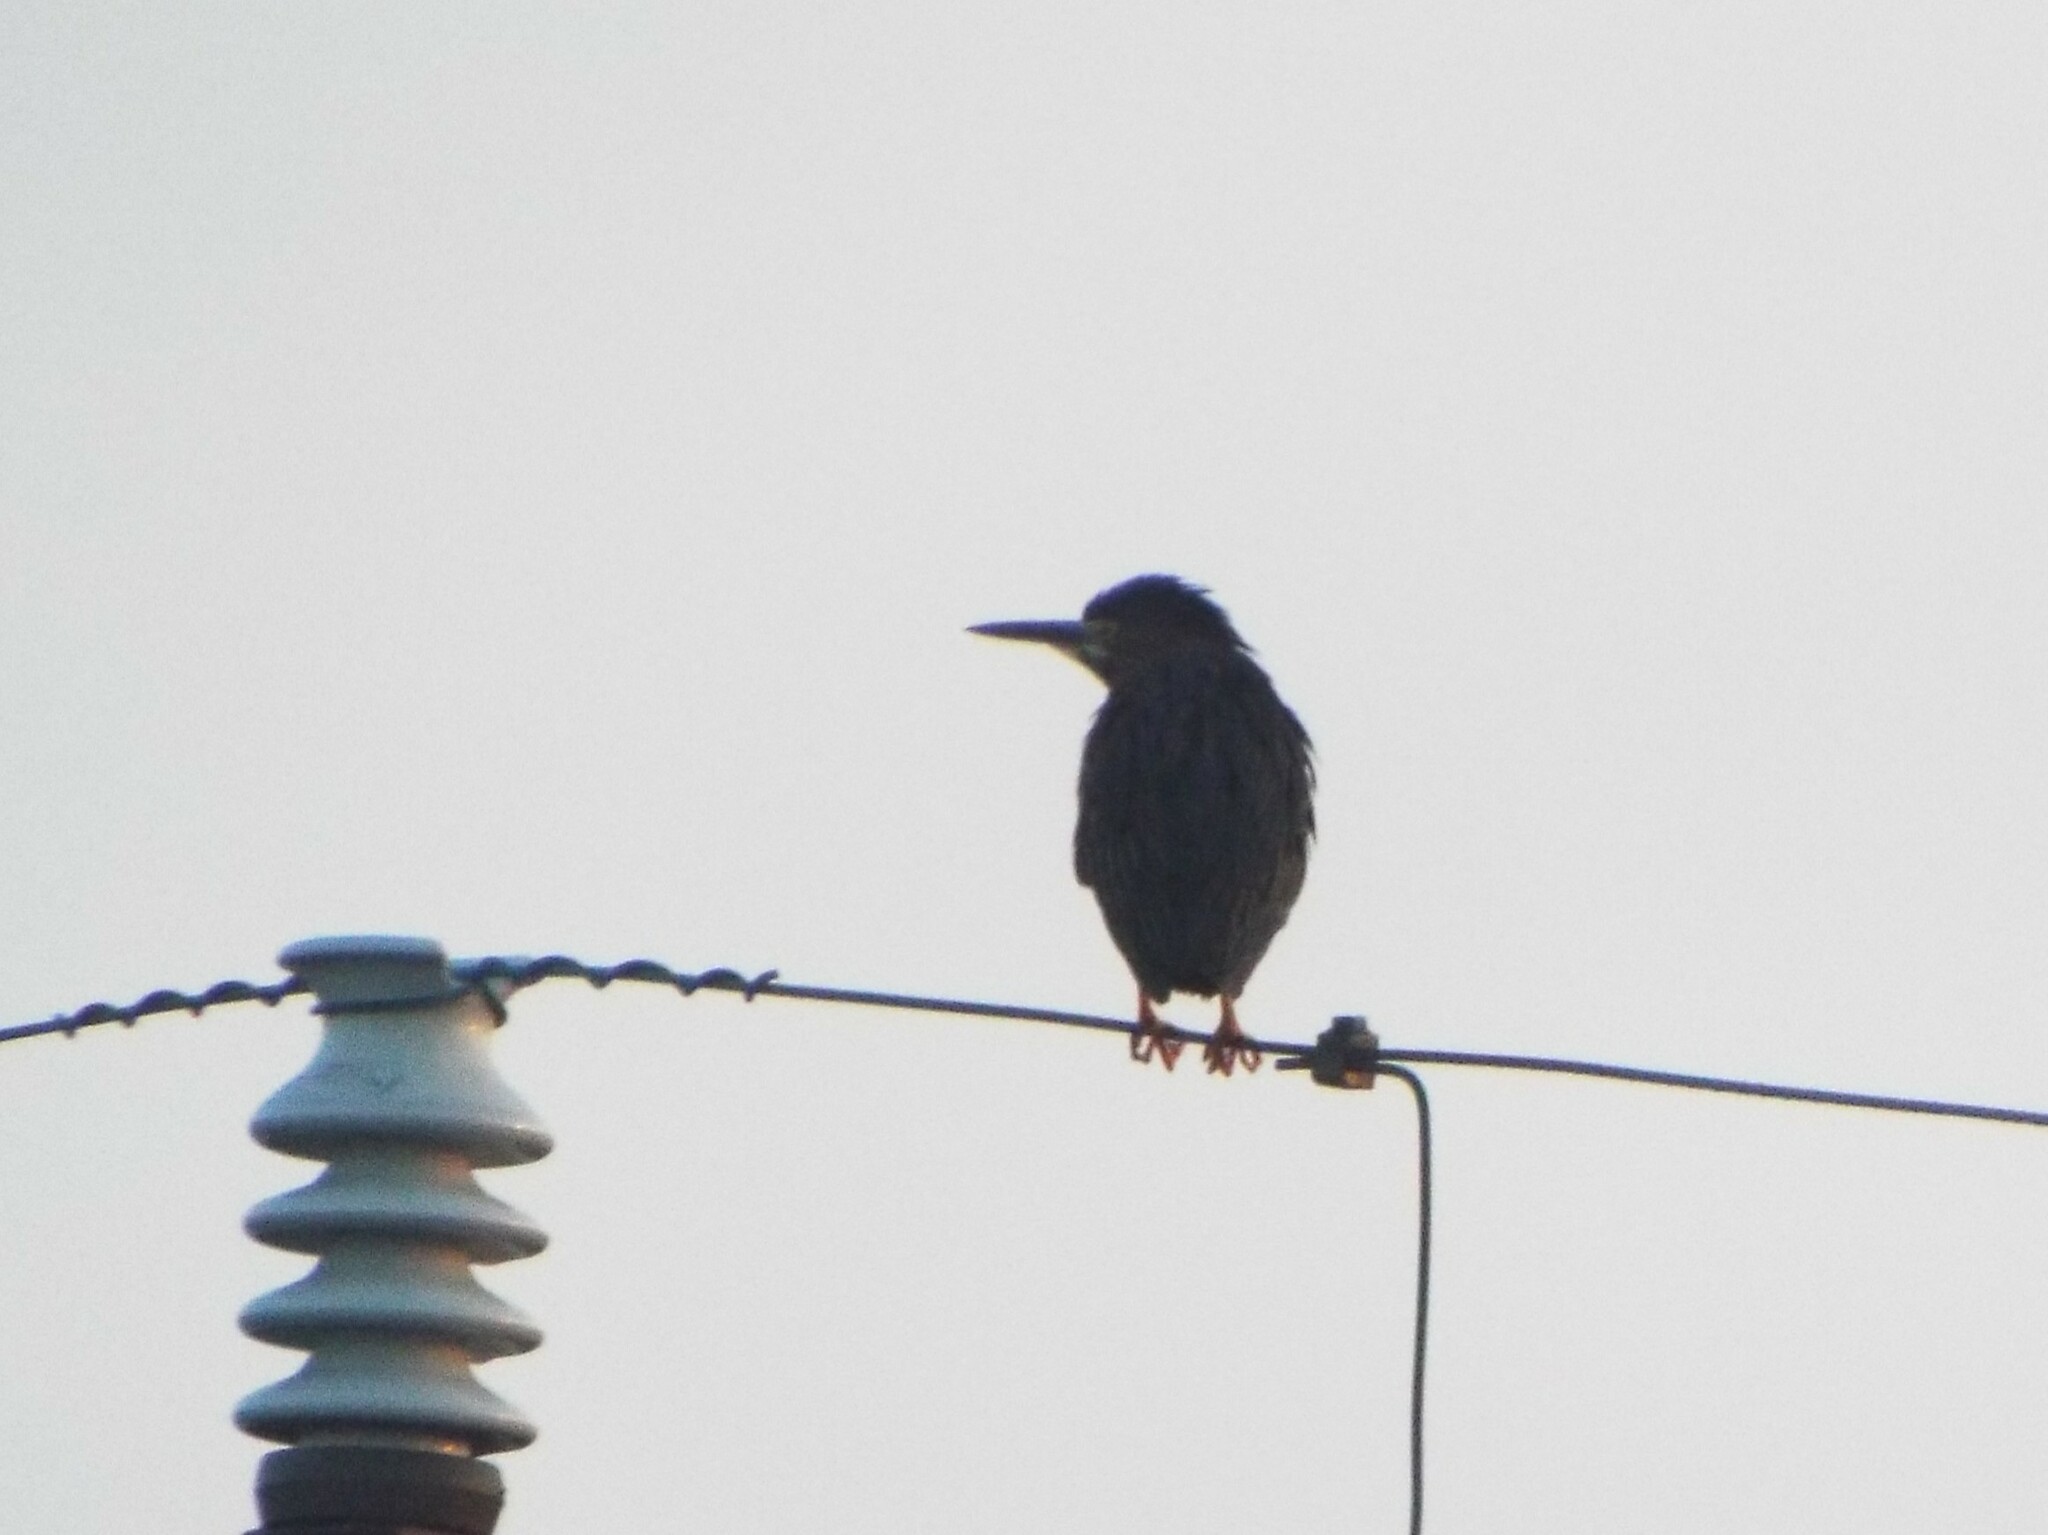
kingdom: Animalia
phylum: Chordata
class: Aves
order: Pelecaniformes
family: Ardeidae
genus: Butorides
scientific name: Butorides virescens
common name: Green heron
